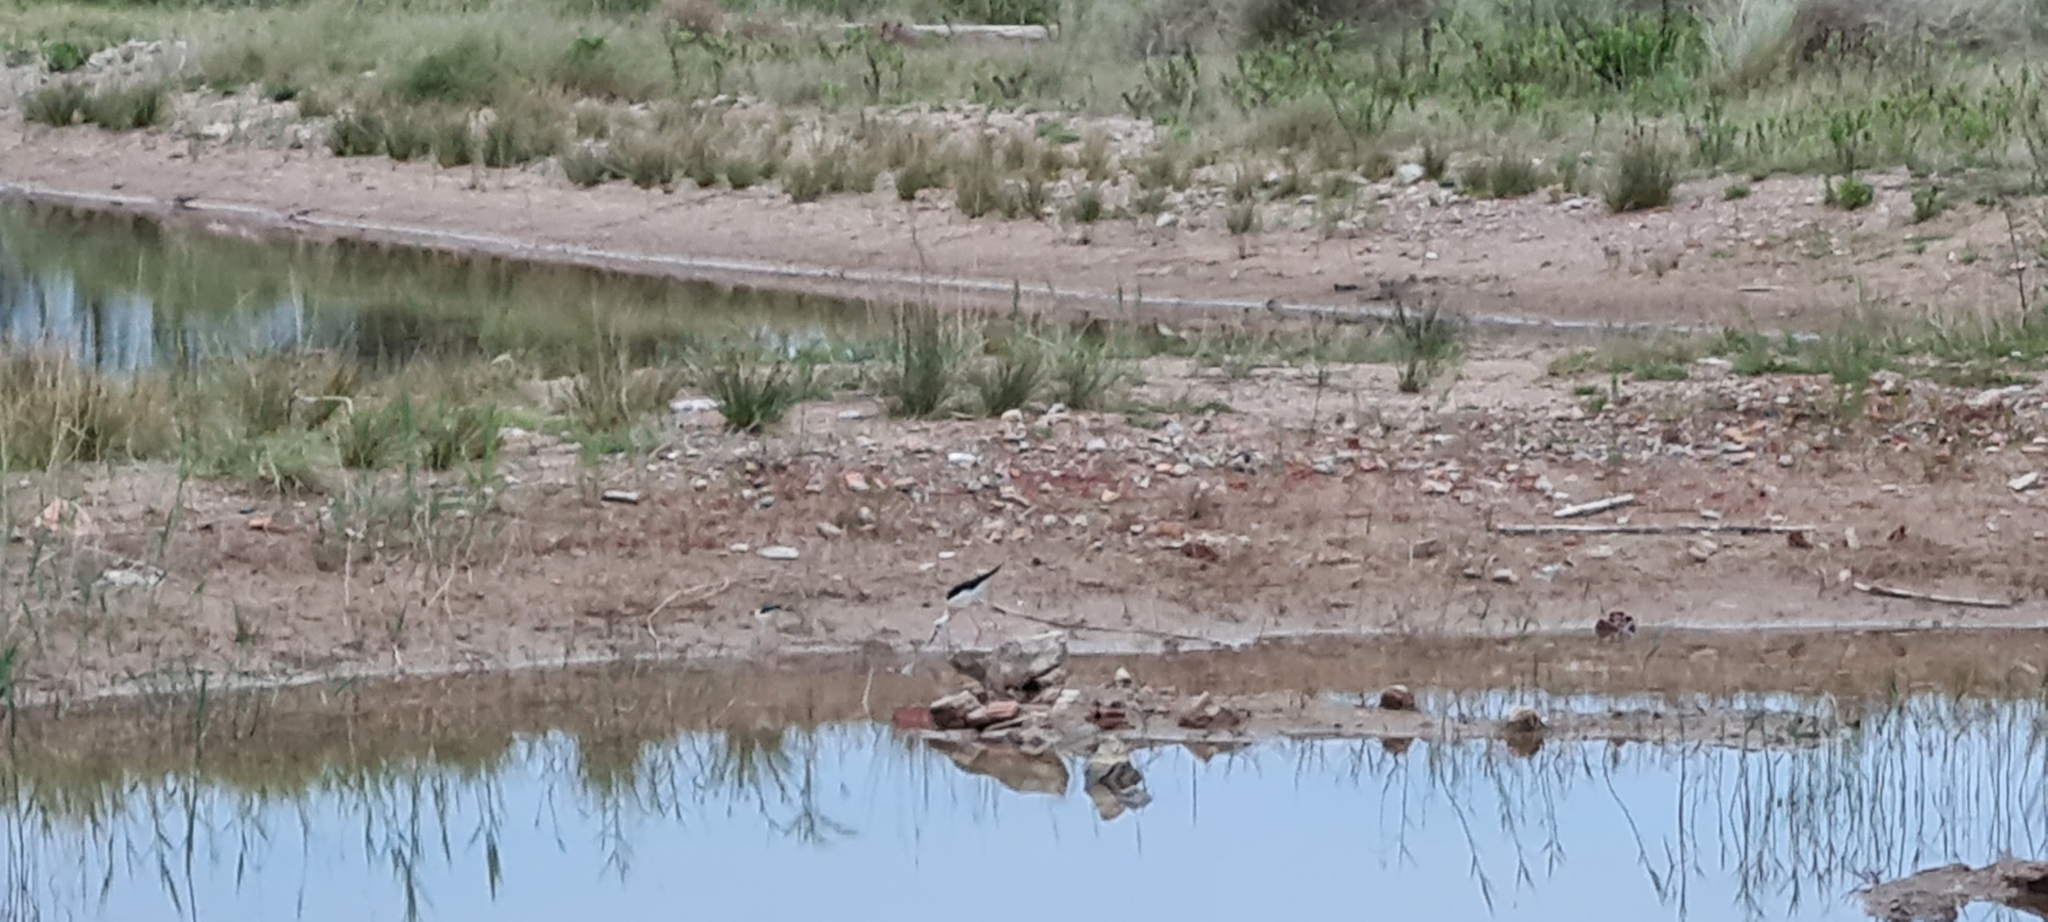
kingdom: Animalia
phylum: Chordata
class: Aves
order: Charadriiformes
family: Recurvirostridae
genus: Himantopus
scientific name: Himantopus himantopus
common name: Black-winged stilt
